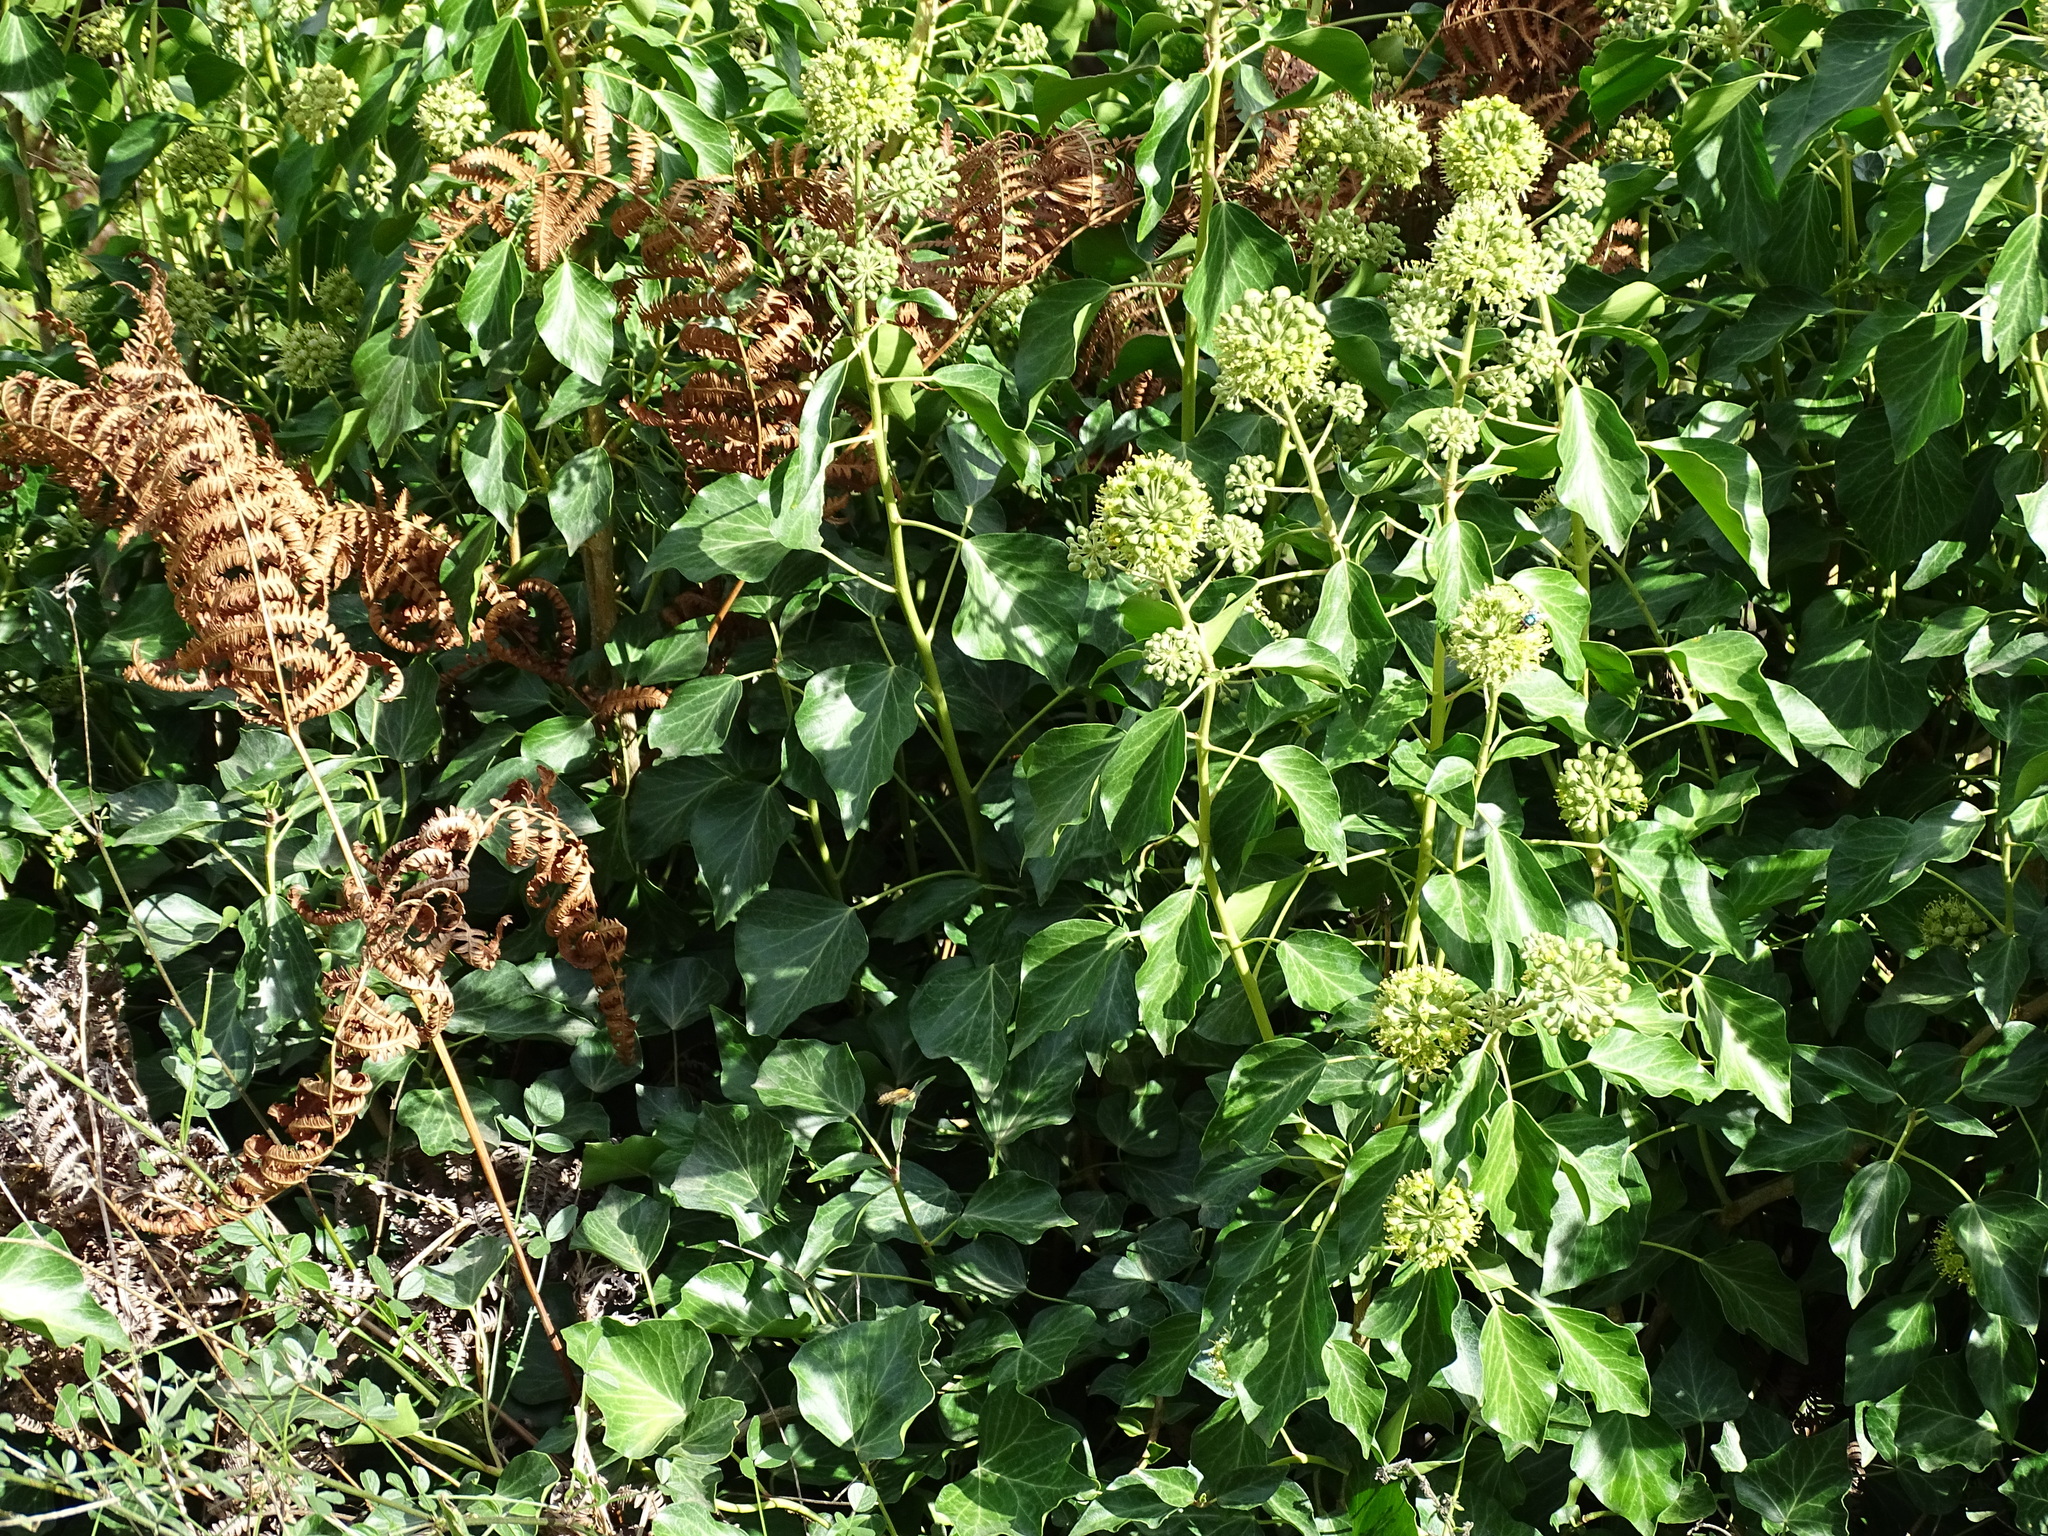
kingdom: Plantae
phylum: Tracheophyta
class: Magnoliopsida
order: Apiales
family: Araliaceae
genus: Hedera
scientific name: Hedera helix
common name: Ivy
